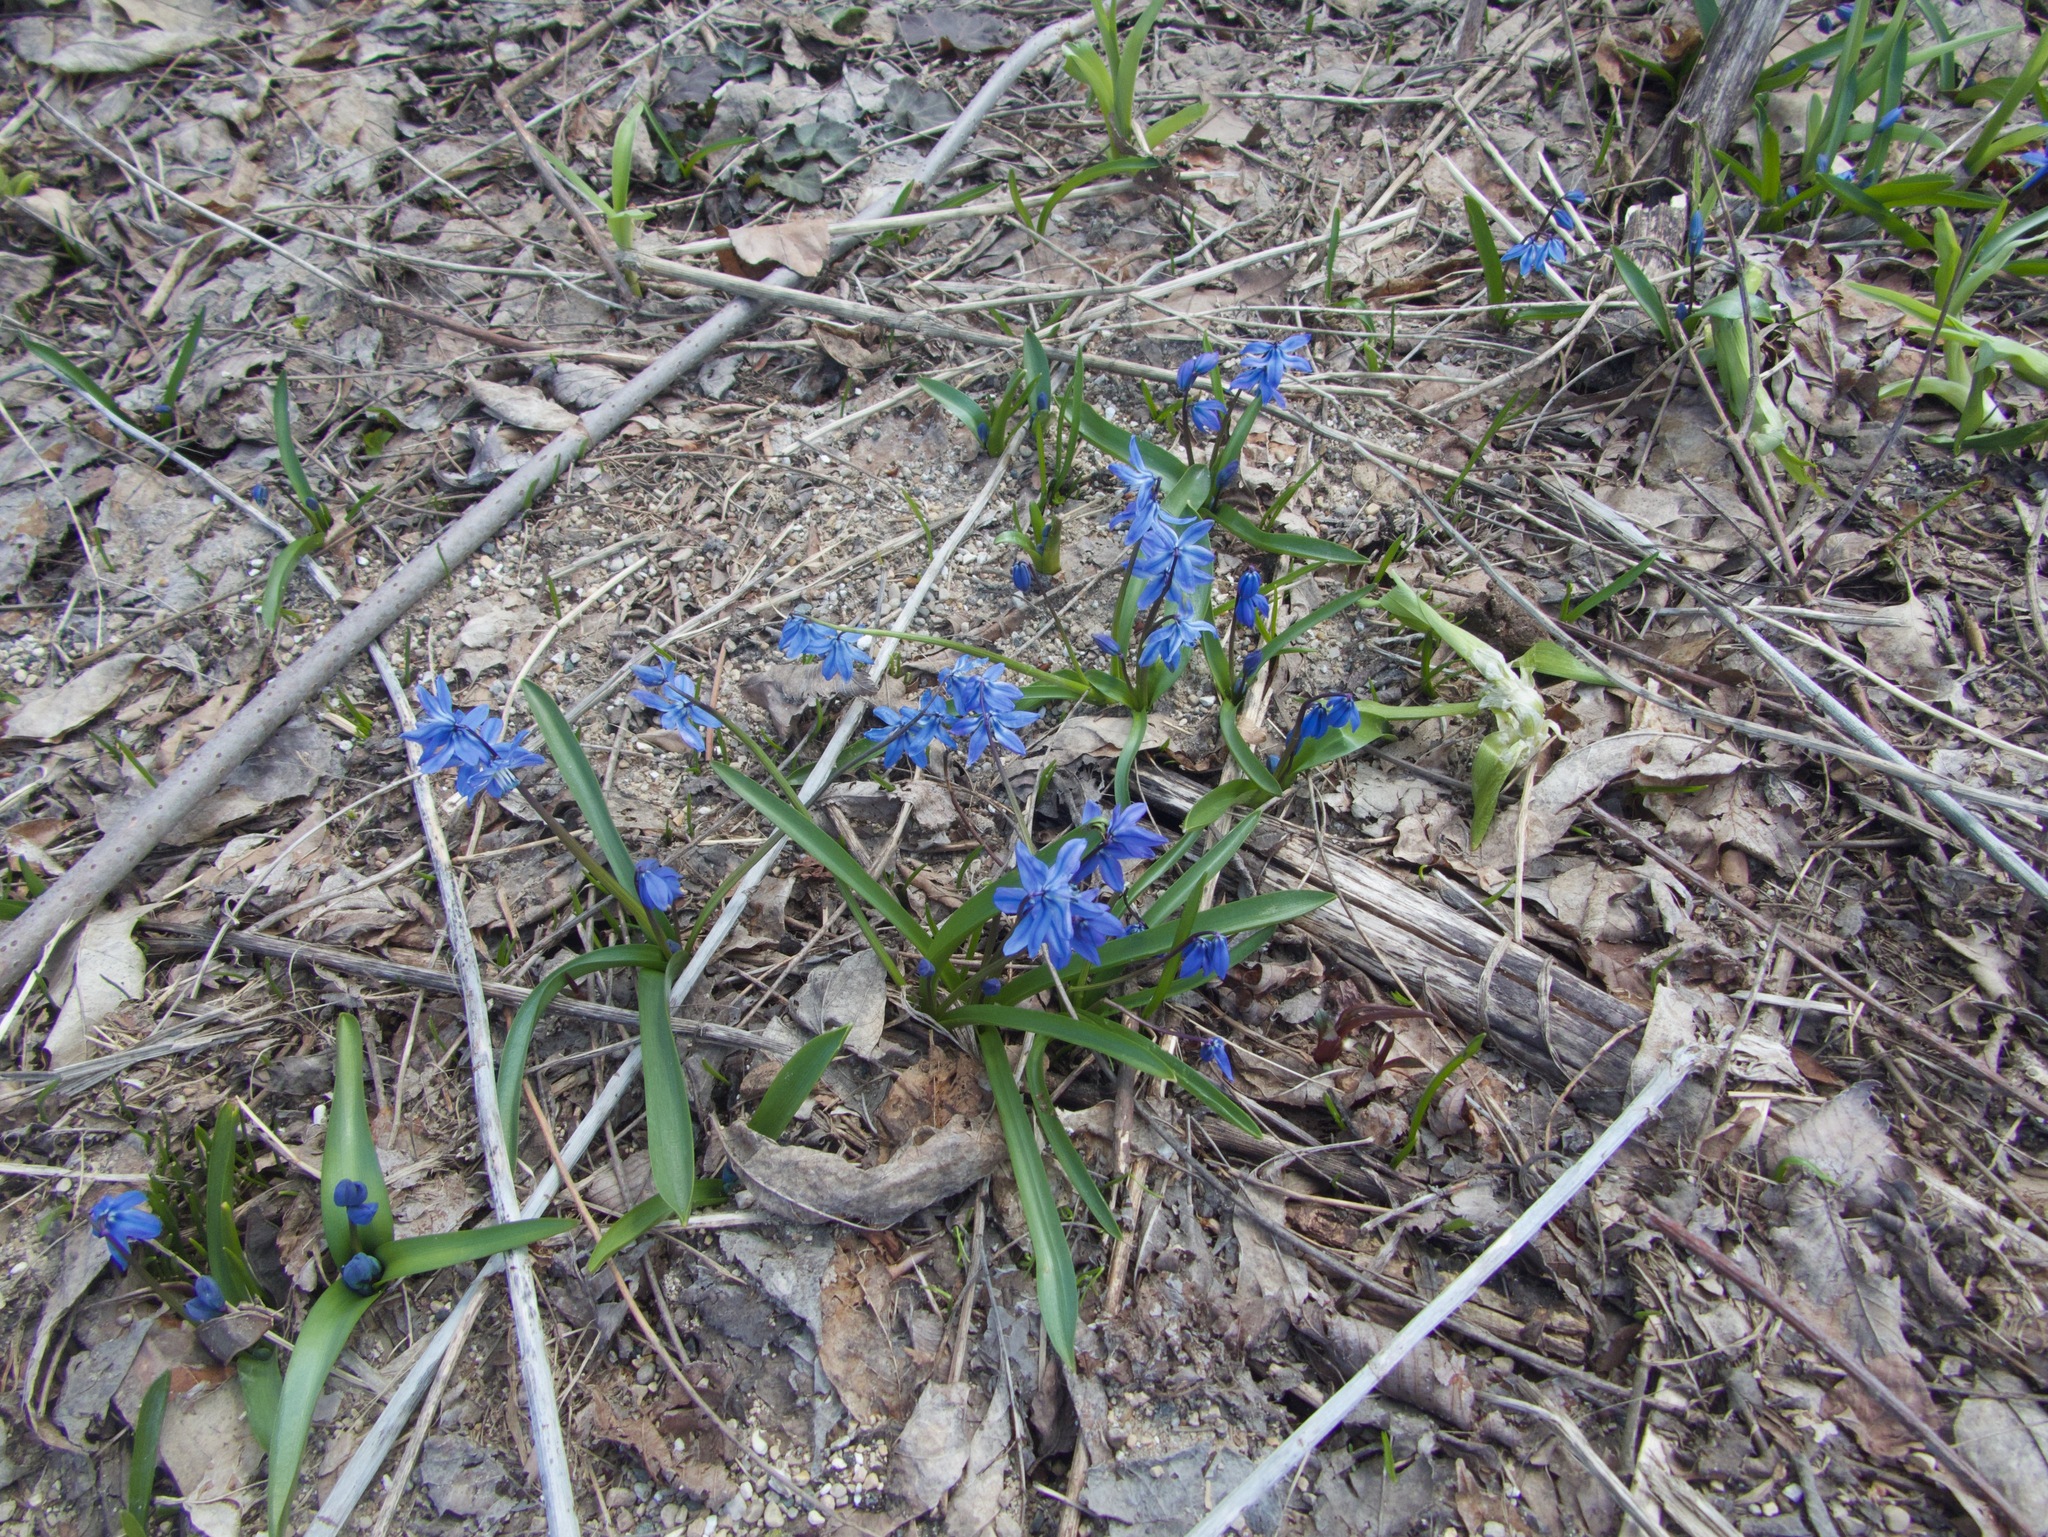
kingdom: Plantae
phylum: Tracheophyta
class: Liliopsida
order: Asparagales
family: Asparagaceae
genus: Scilla
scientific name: Scilla siberica
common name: Siberian squill
